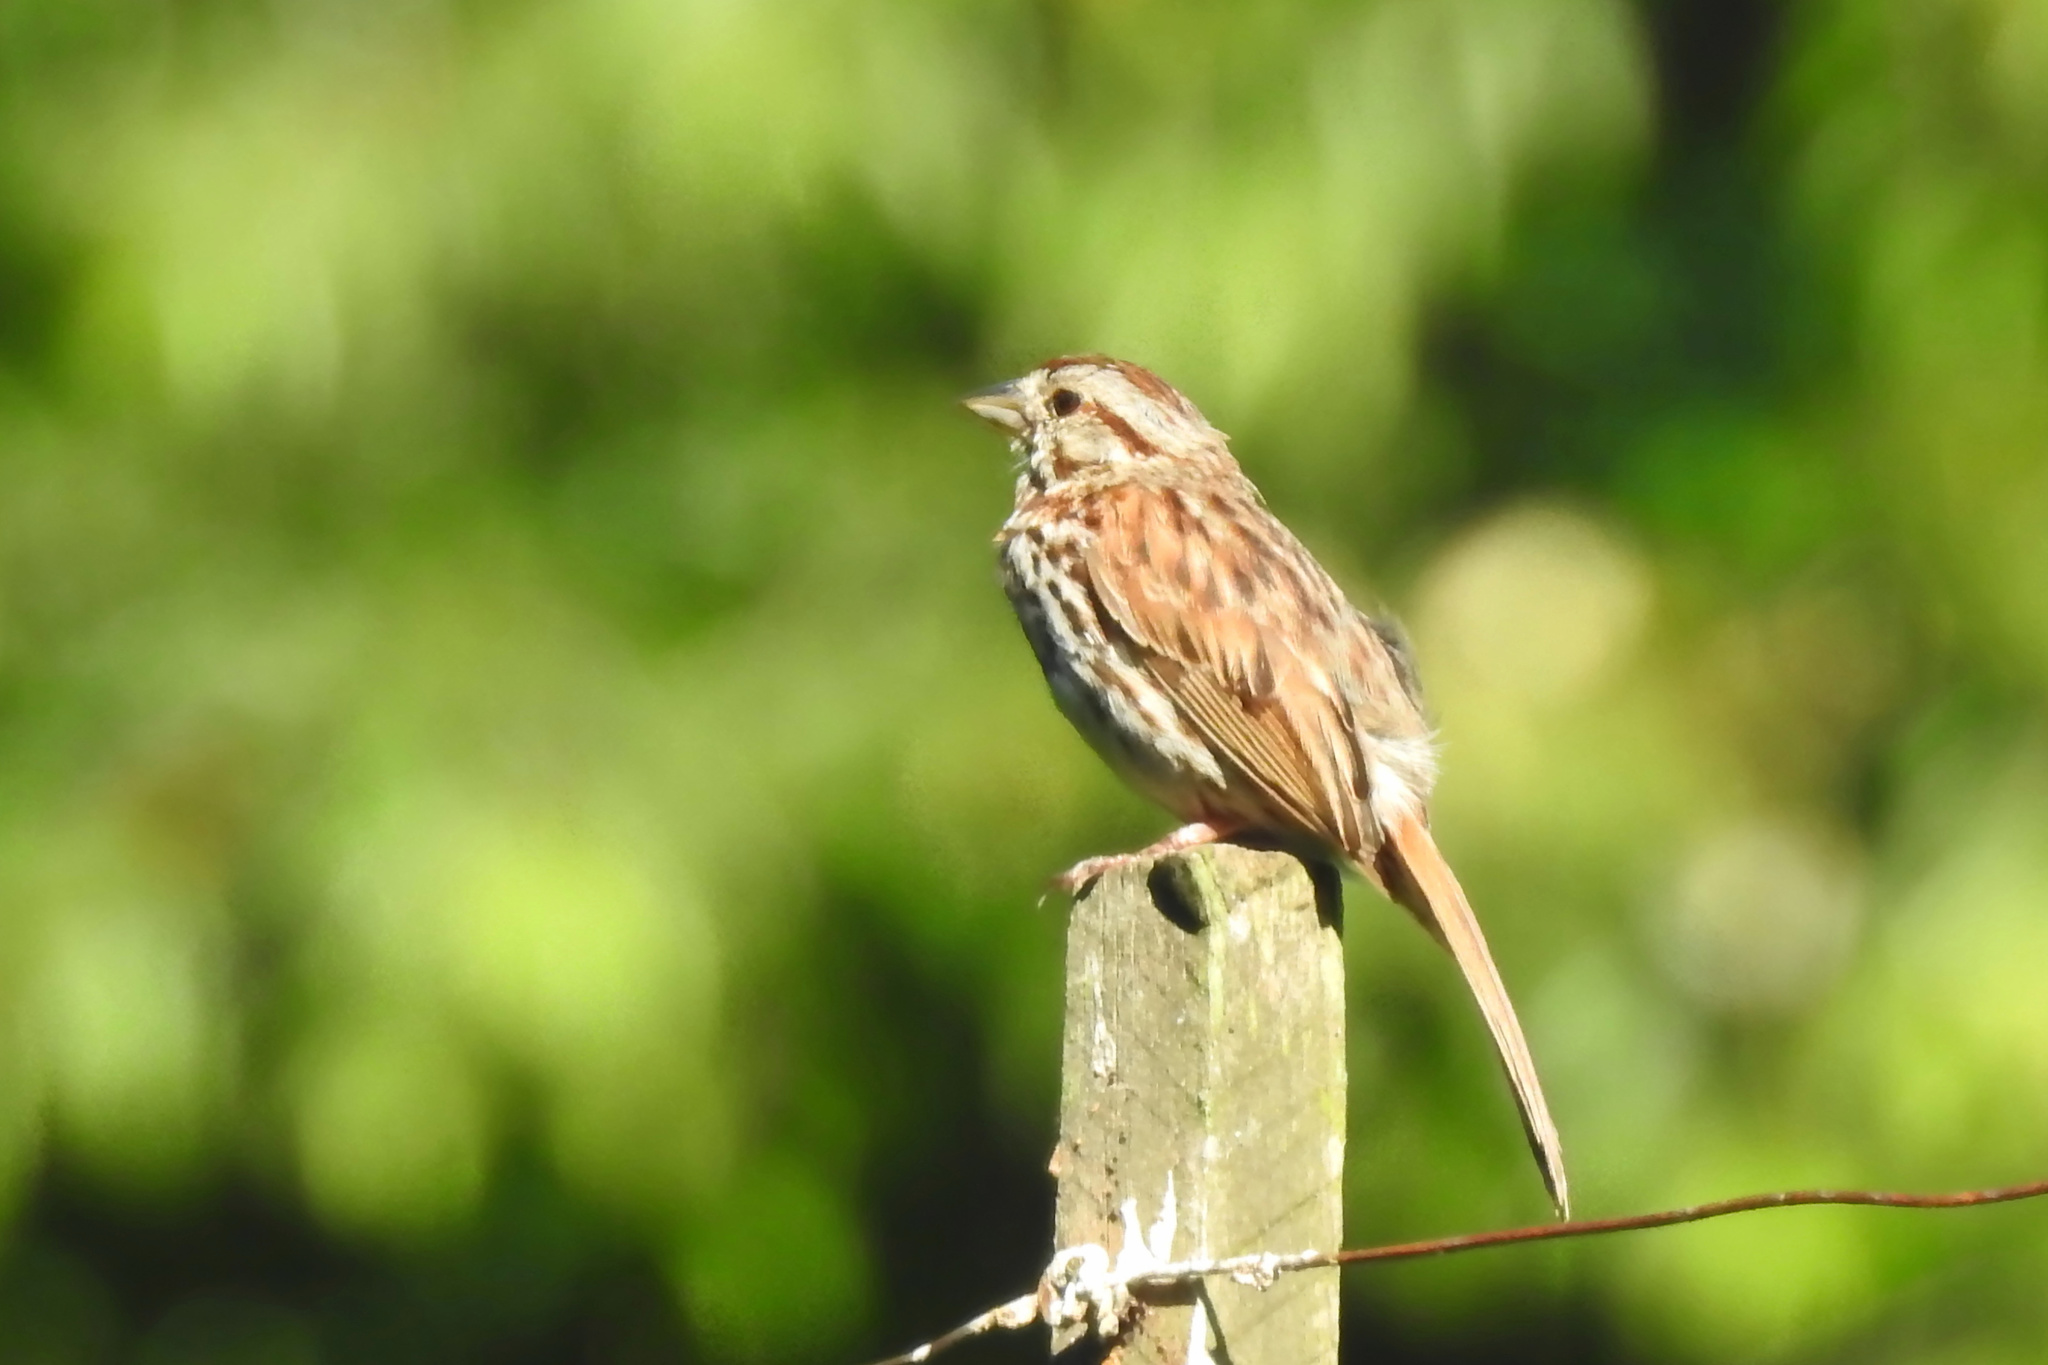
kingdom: Animalia
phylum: Chordata
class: Aves
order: Passeriformes
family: Passerellidae
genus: Melospiza
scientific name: Melospiza melodia
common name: Song sparrow
